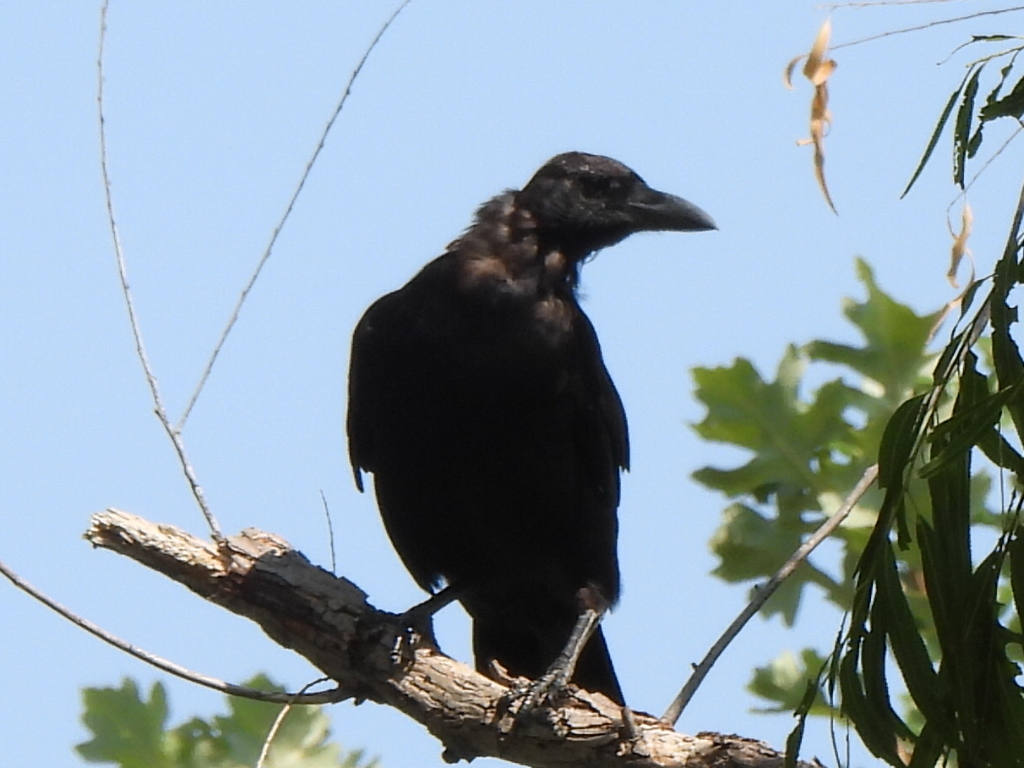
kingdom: Animalia
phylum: Chordata
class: Aves
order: Passeriformes
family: Corvidae
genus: Corvus
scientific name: Corvus brachyrhynchos
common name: American crow
